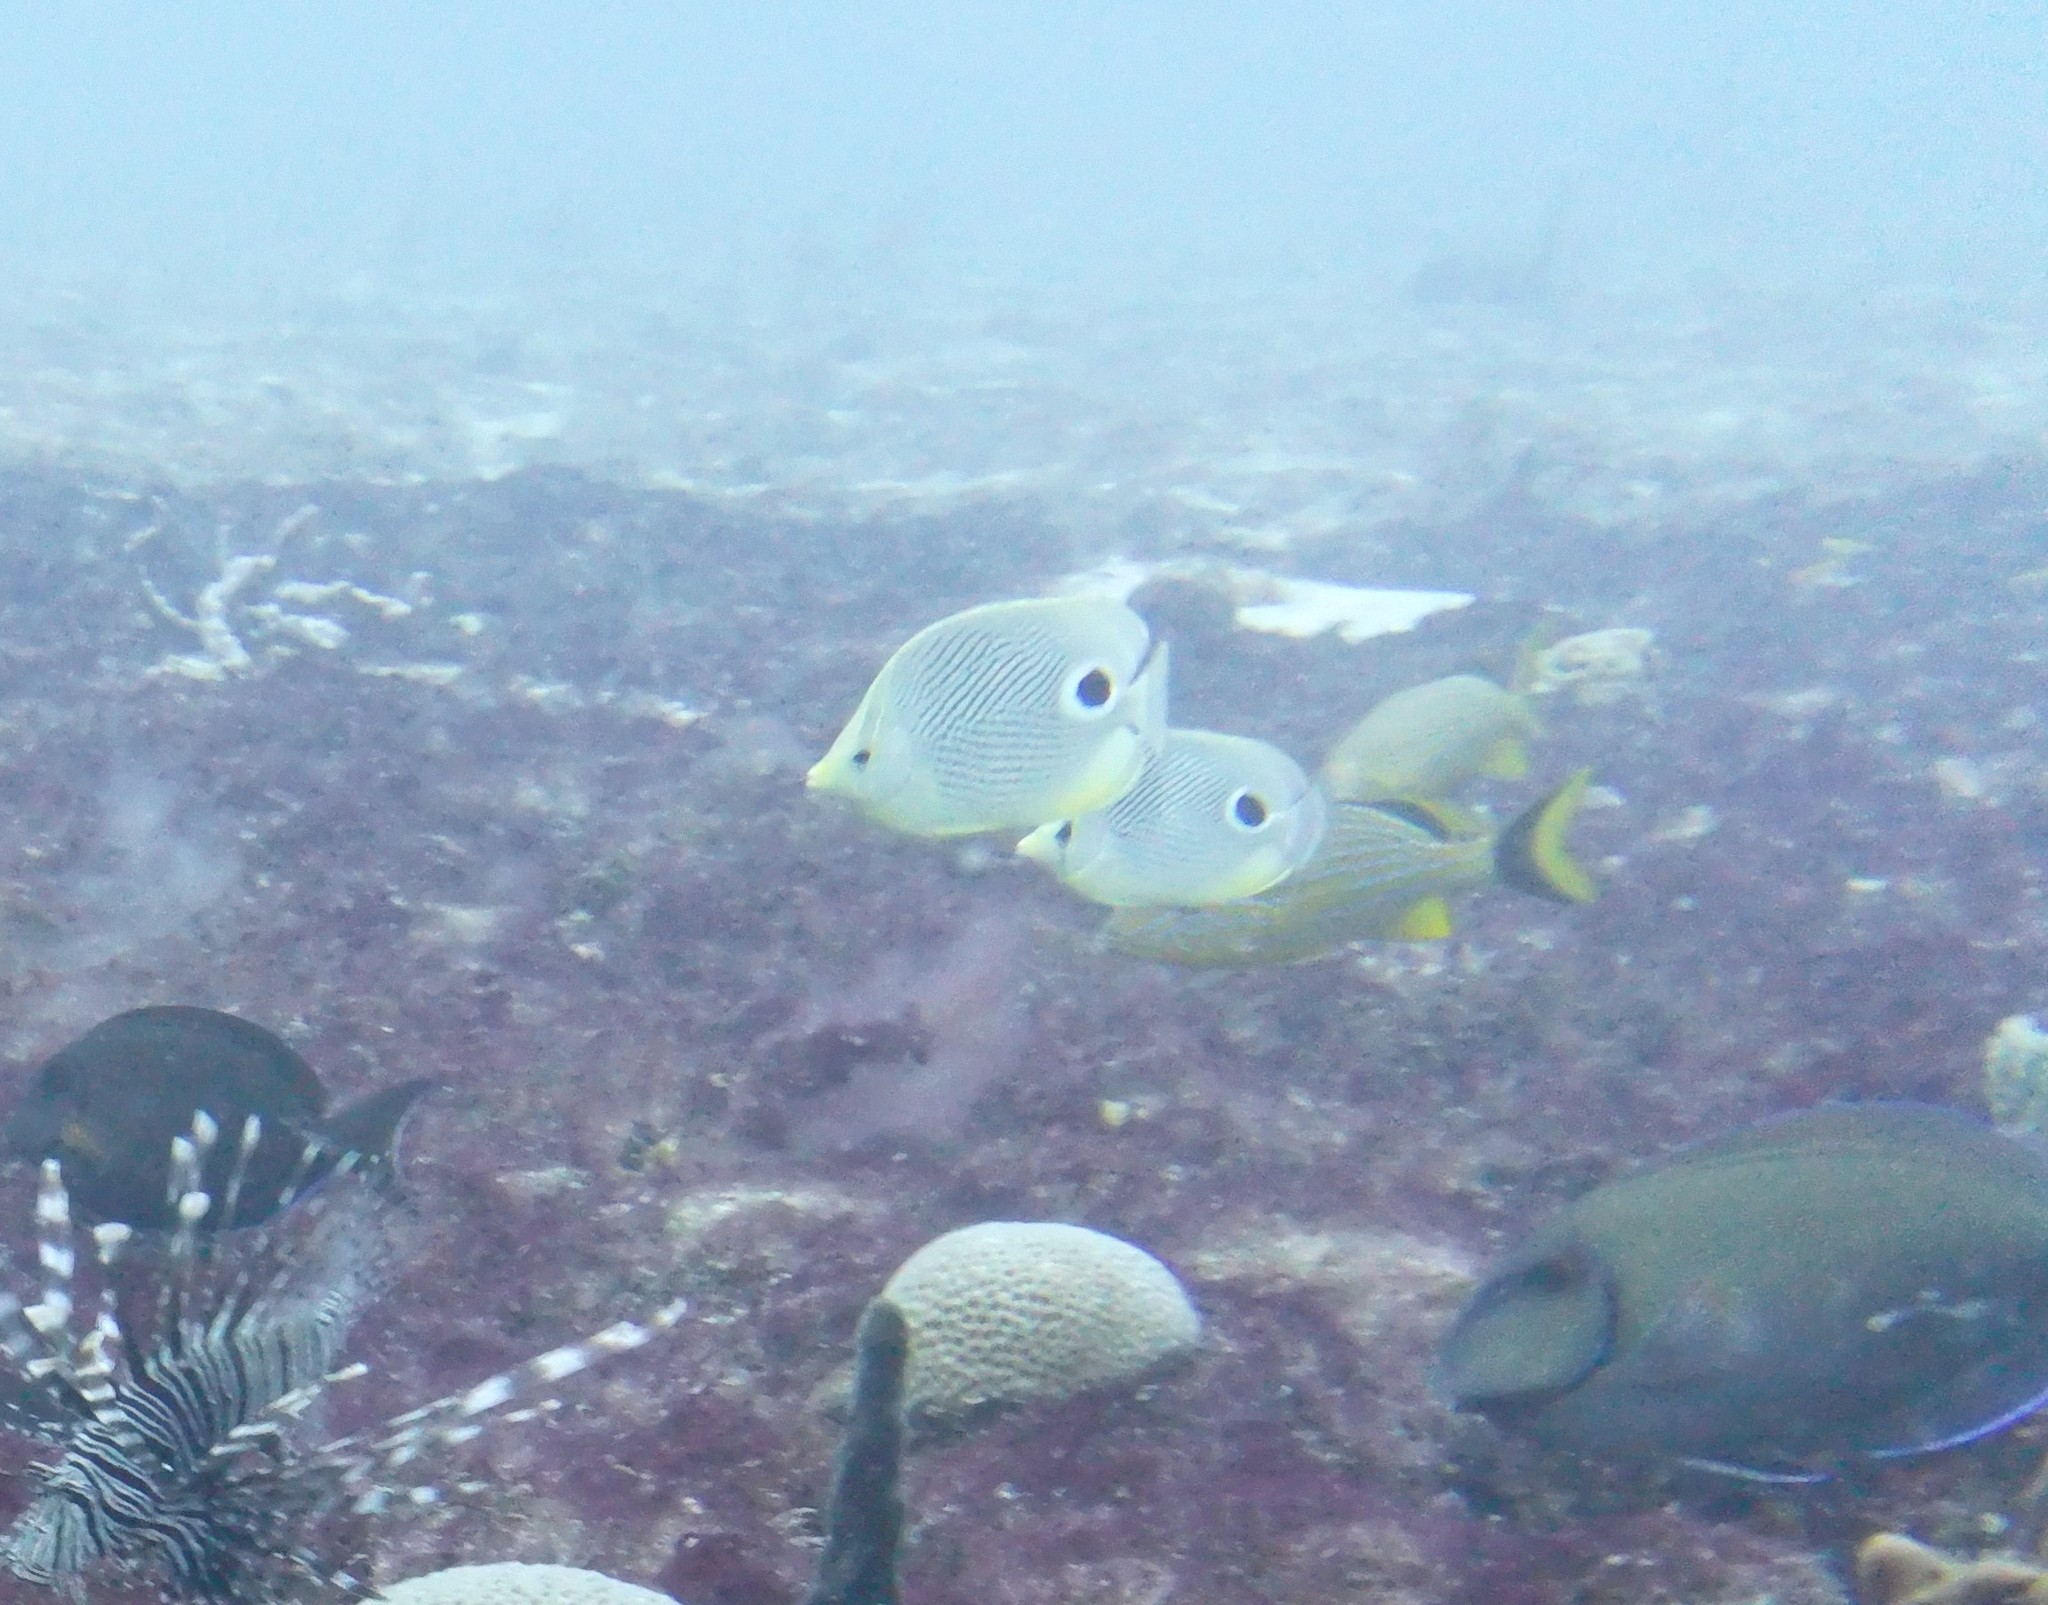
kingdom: Animalia
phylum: Chordata
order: Perciformes
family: Chaetodontidae
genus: Chaetodon
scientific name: Chaetodon capistratus
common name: Kete
